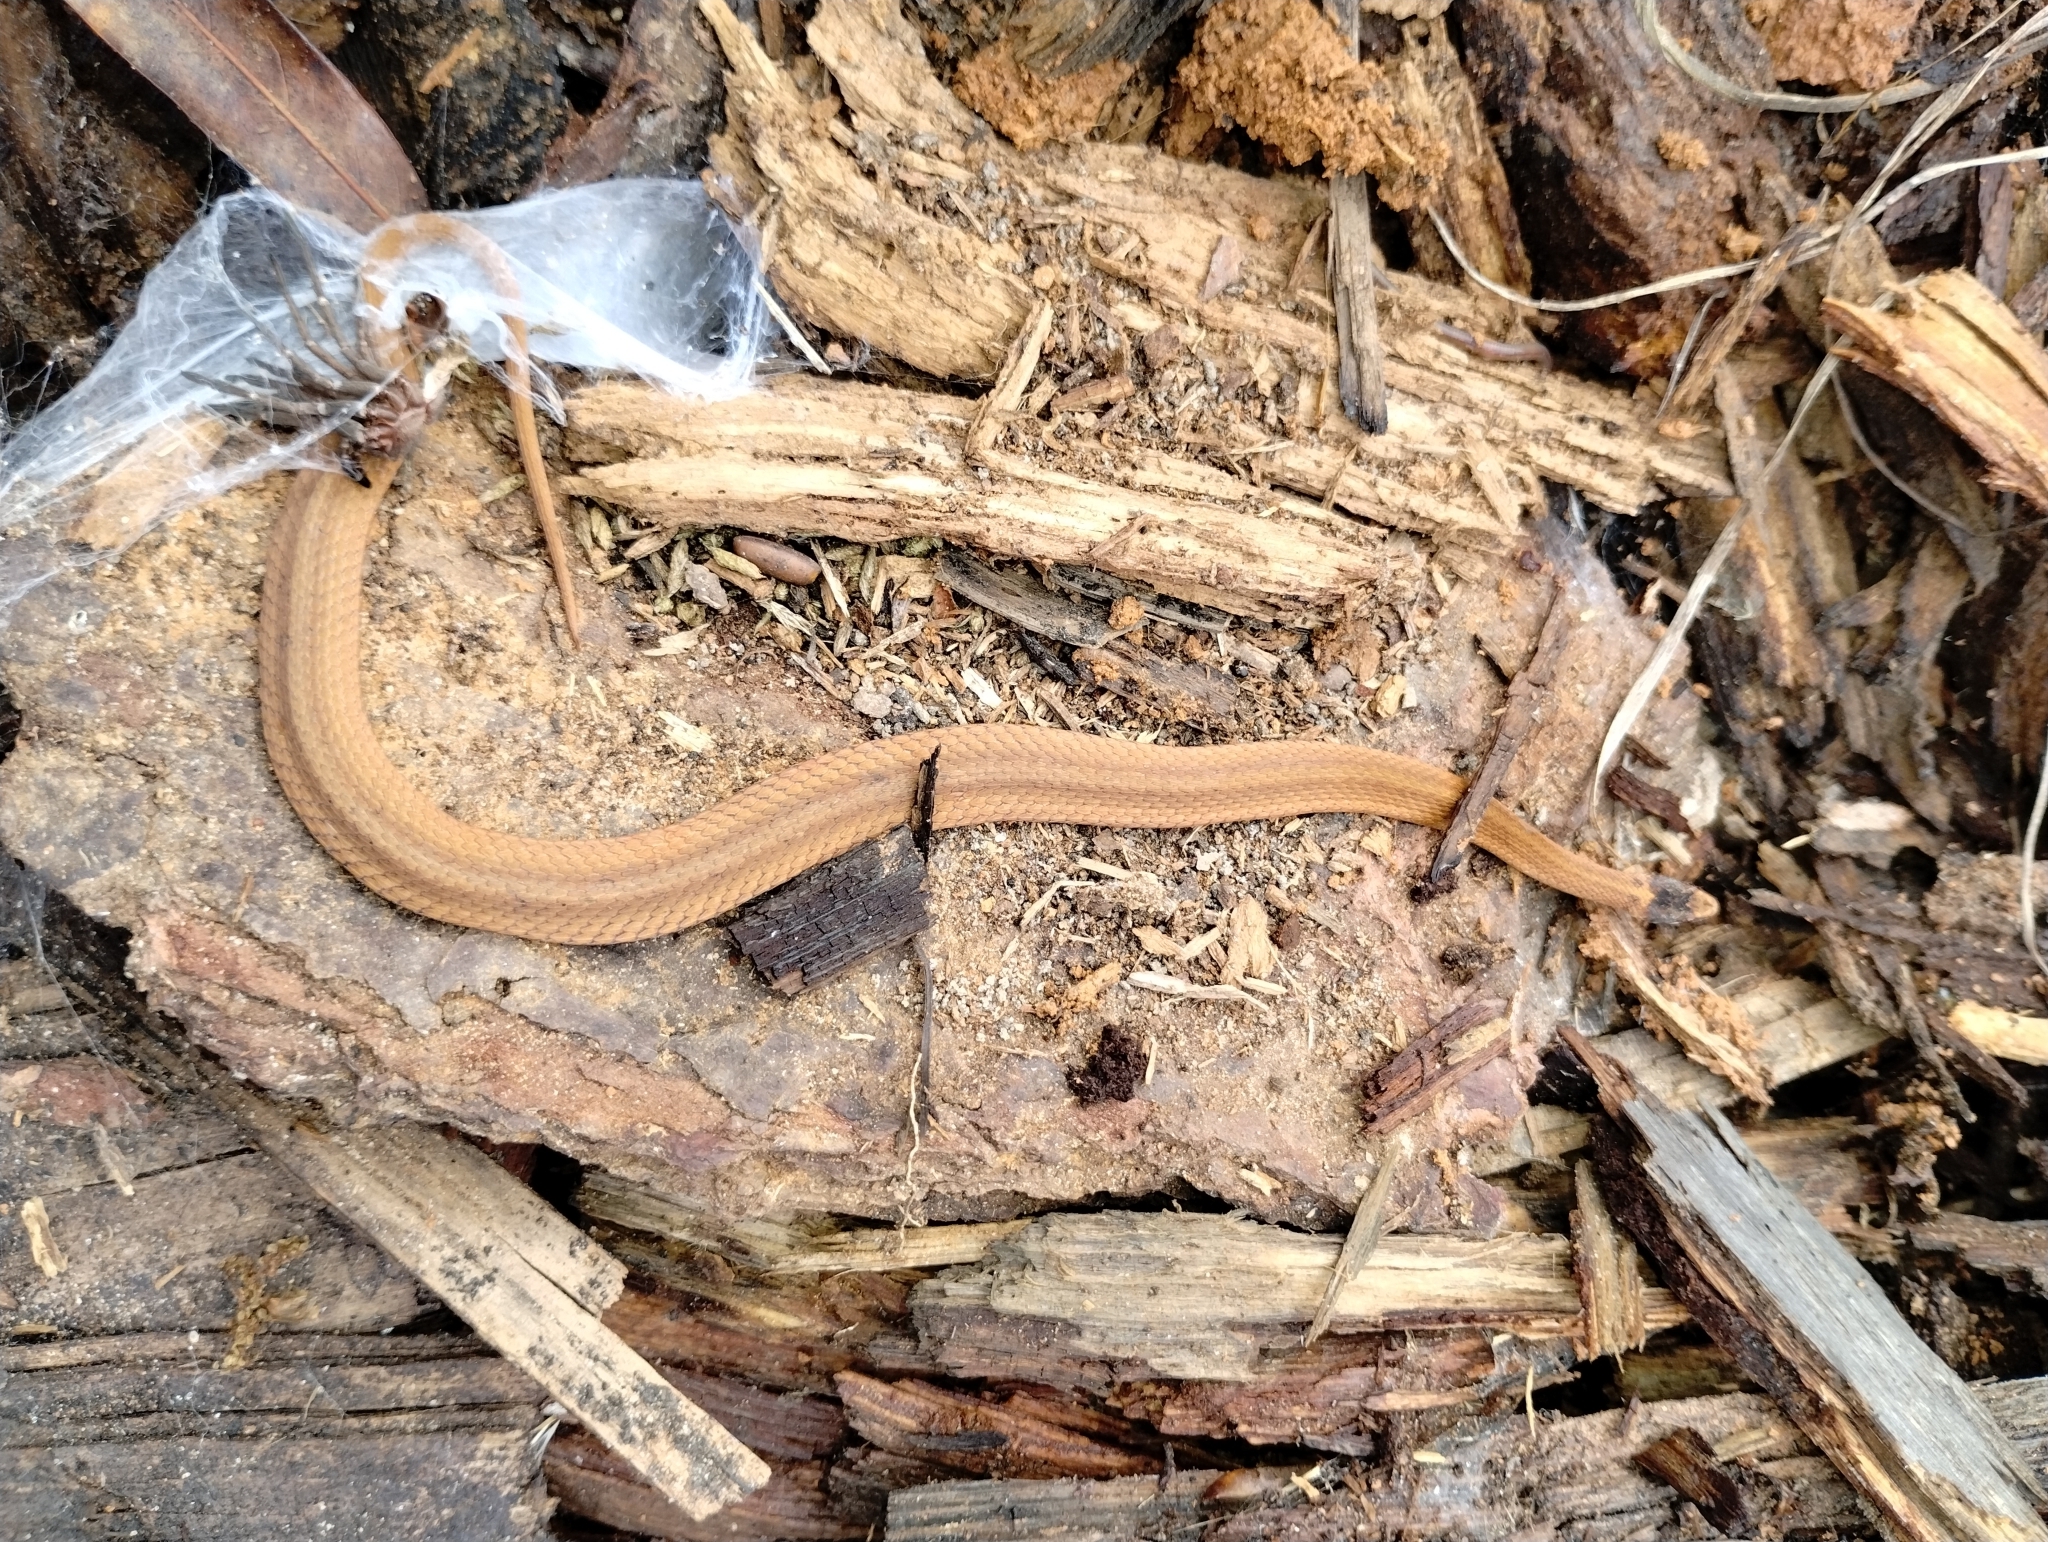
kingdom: Animalia
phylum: Chordata
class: Squamata
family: Colubridae
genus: Storeria
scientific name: Storeria occipitomaculata
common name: Redbelly snake
